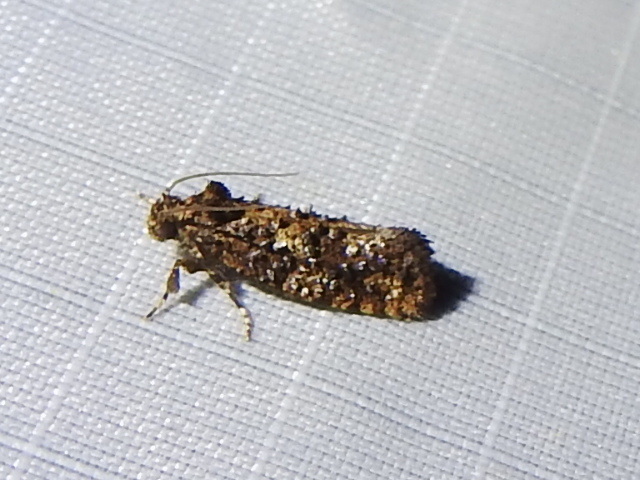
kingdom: Animalia
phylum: Arthropoda
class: Insecta
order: Lepidoptera
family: Tineidae
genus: Acrolophus
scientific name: Acrolophus cressoni
